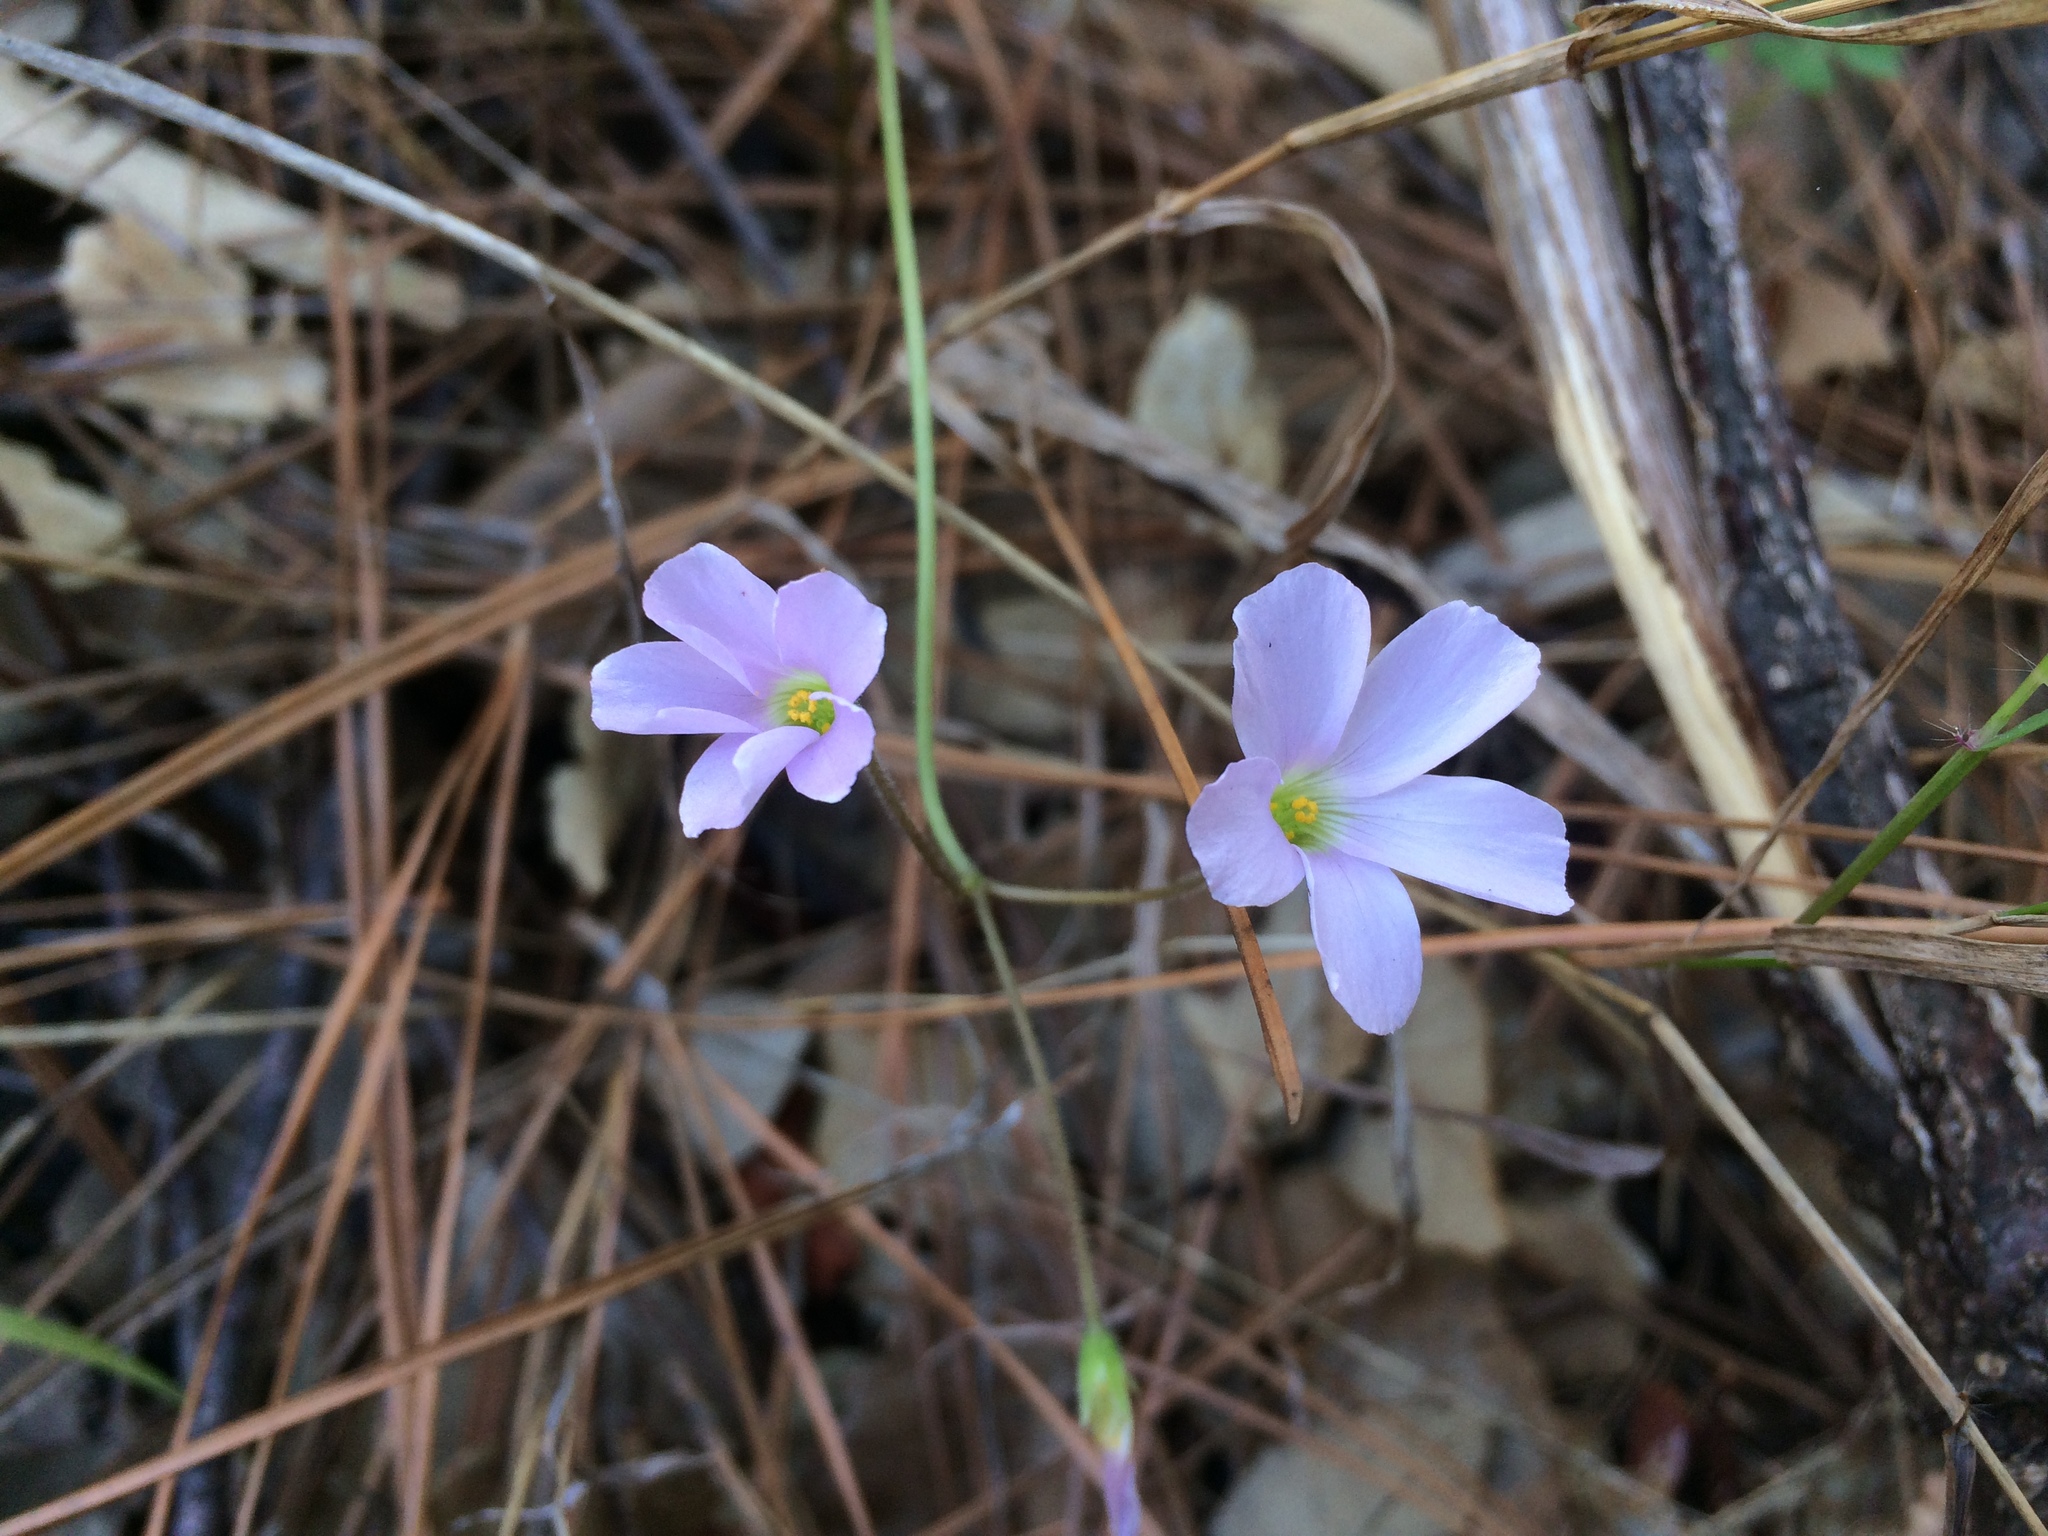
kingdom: Plantae
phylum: Tracheophyta
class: Magnoliopsida
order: Oxalidales
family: Oxalidaceae
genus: Oxalis
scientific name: Oxalis
